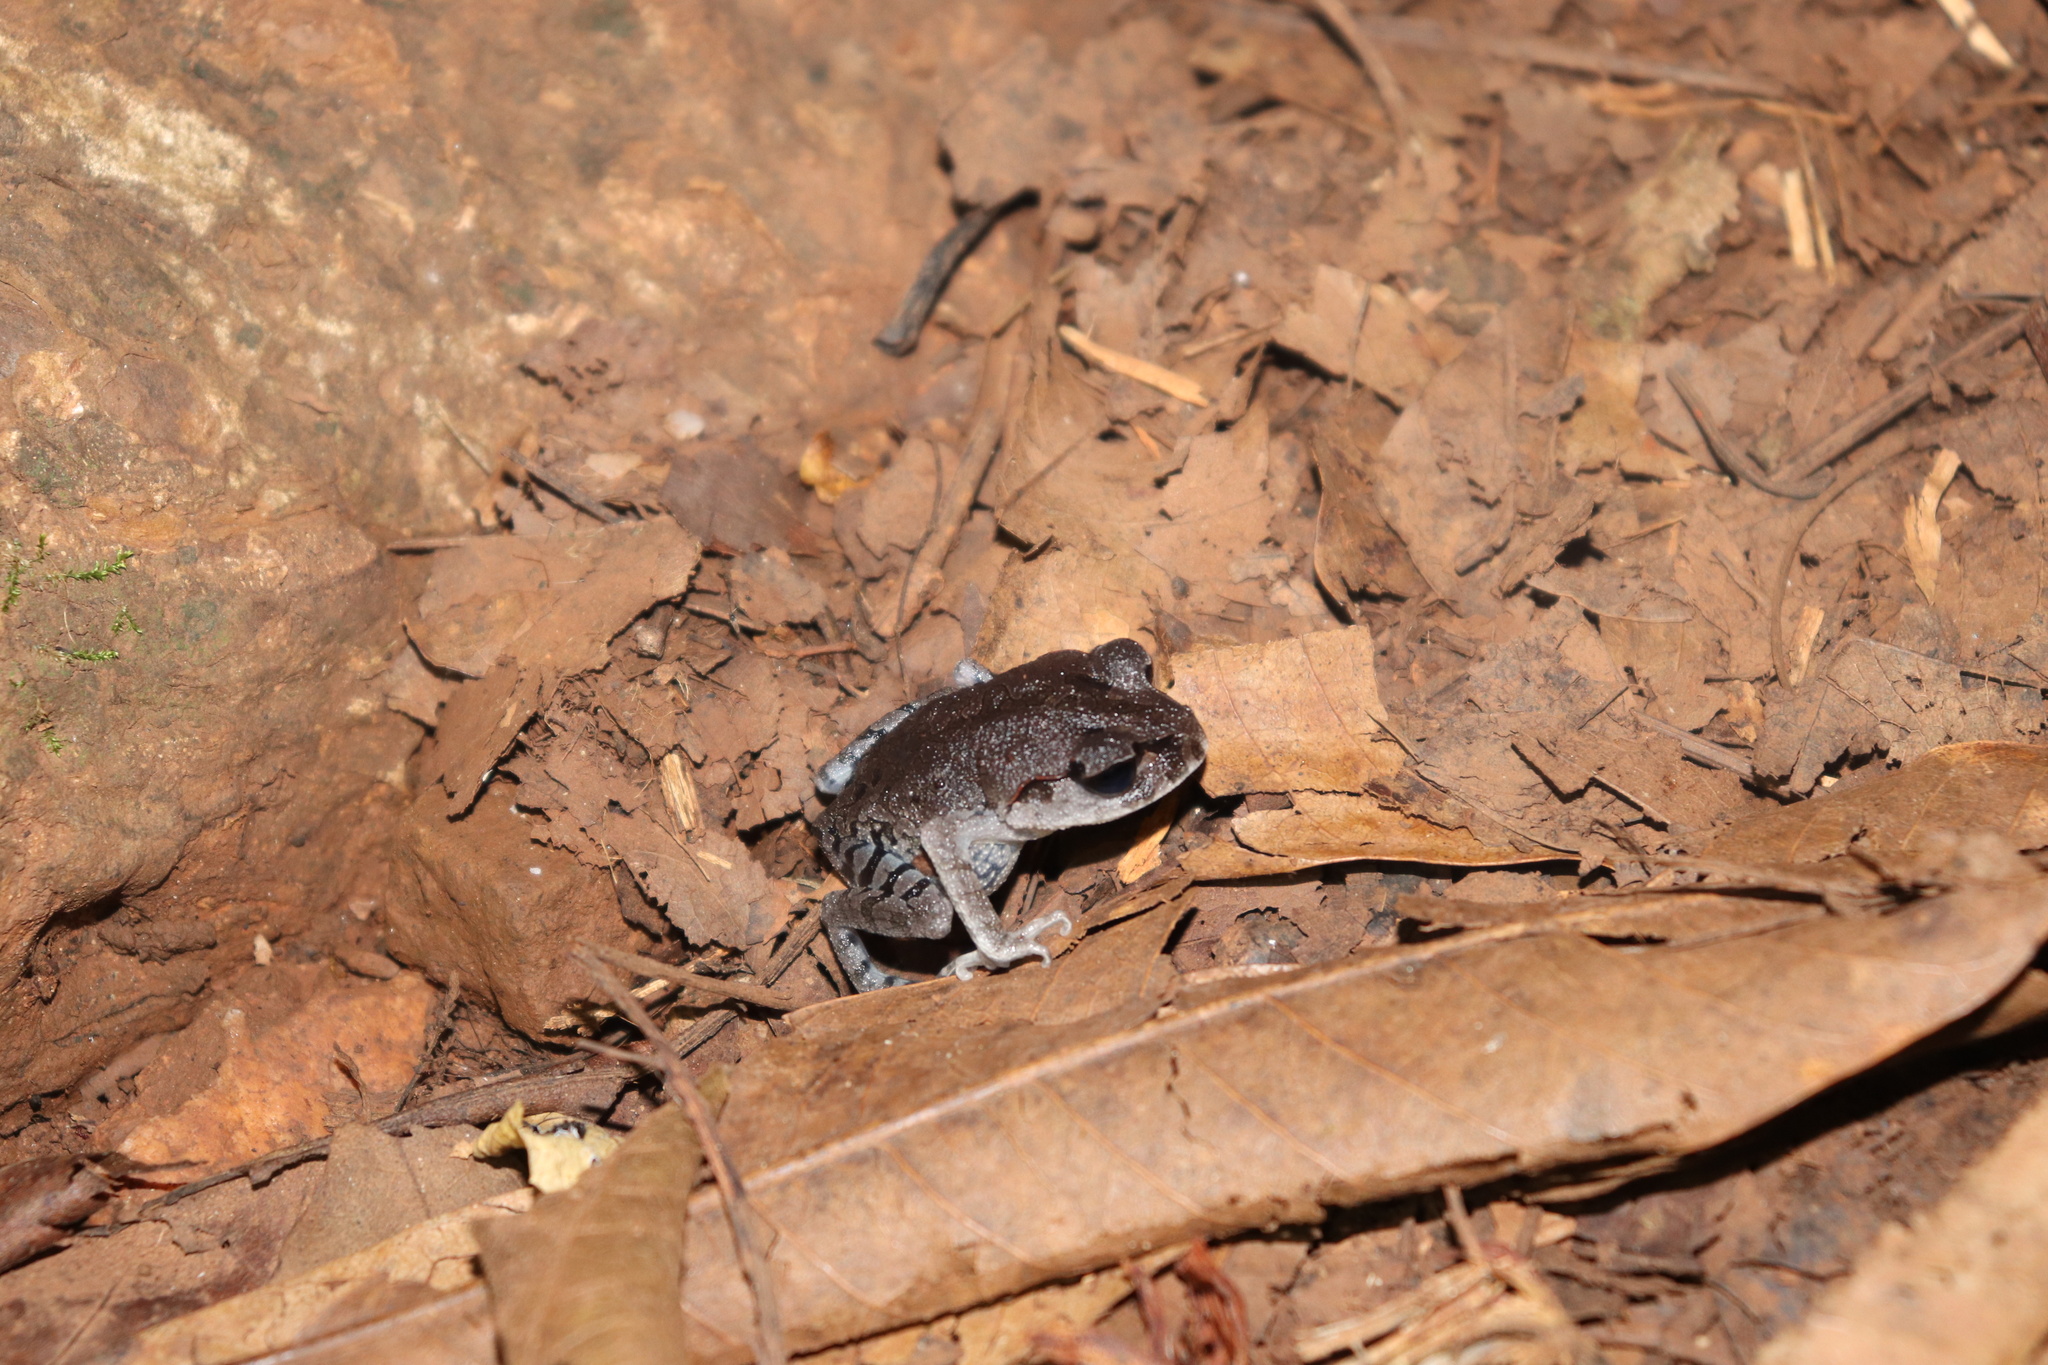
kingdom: Animalia
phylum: Chordata
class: Amphibia
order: Anura
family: Megophryidae
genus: Leptobrachium
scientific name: Leptobrachium smithi
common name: Smith's litter frog
